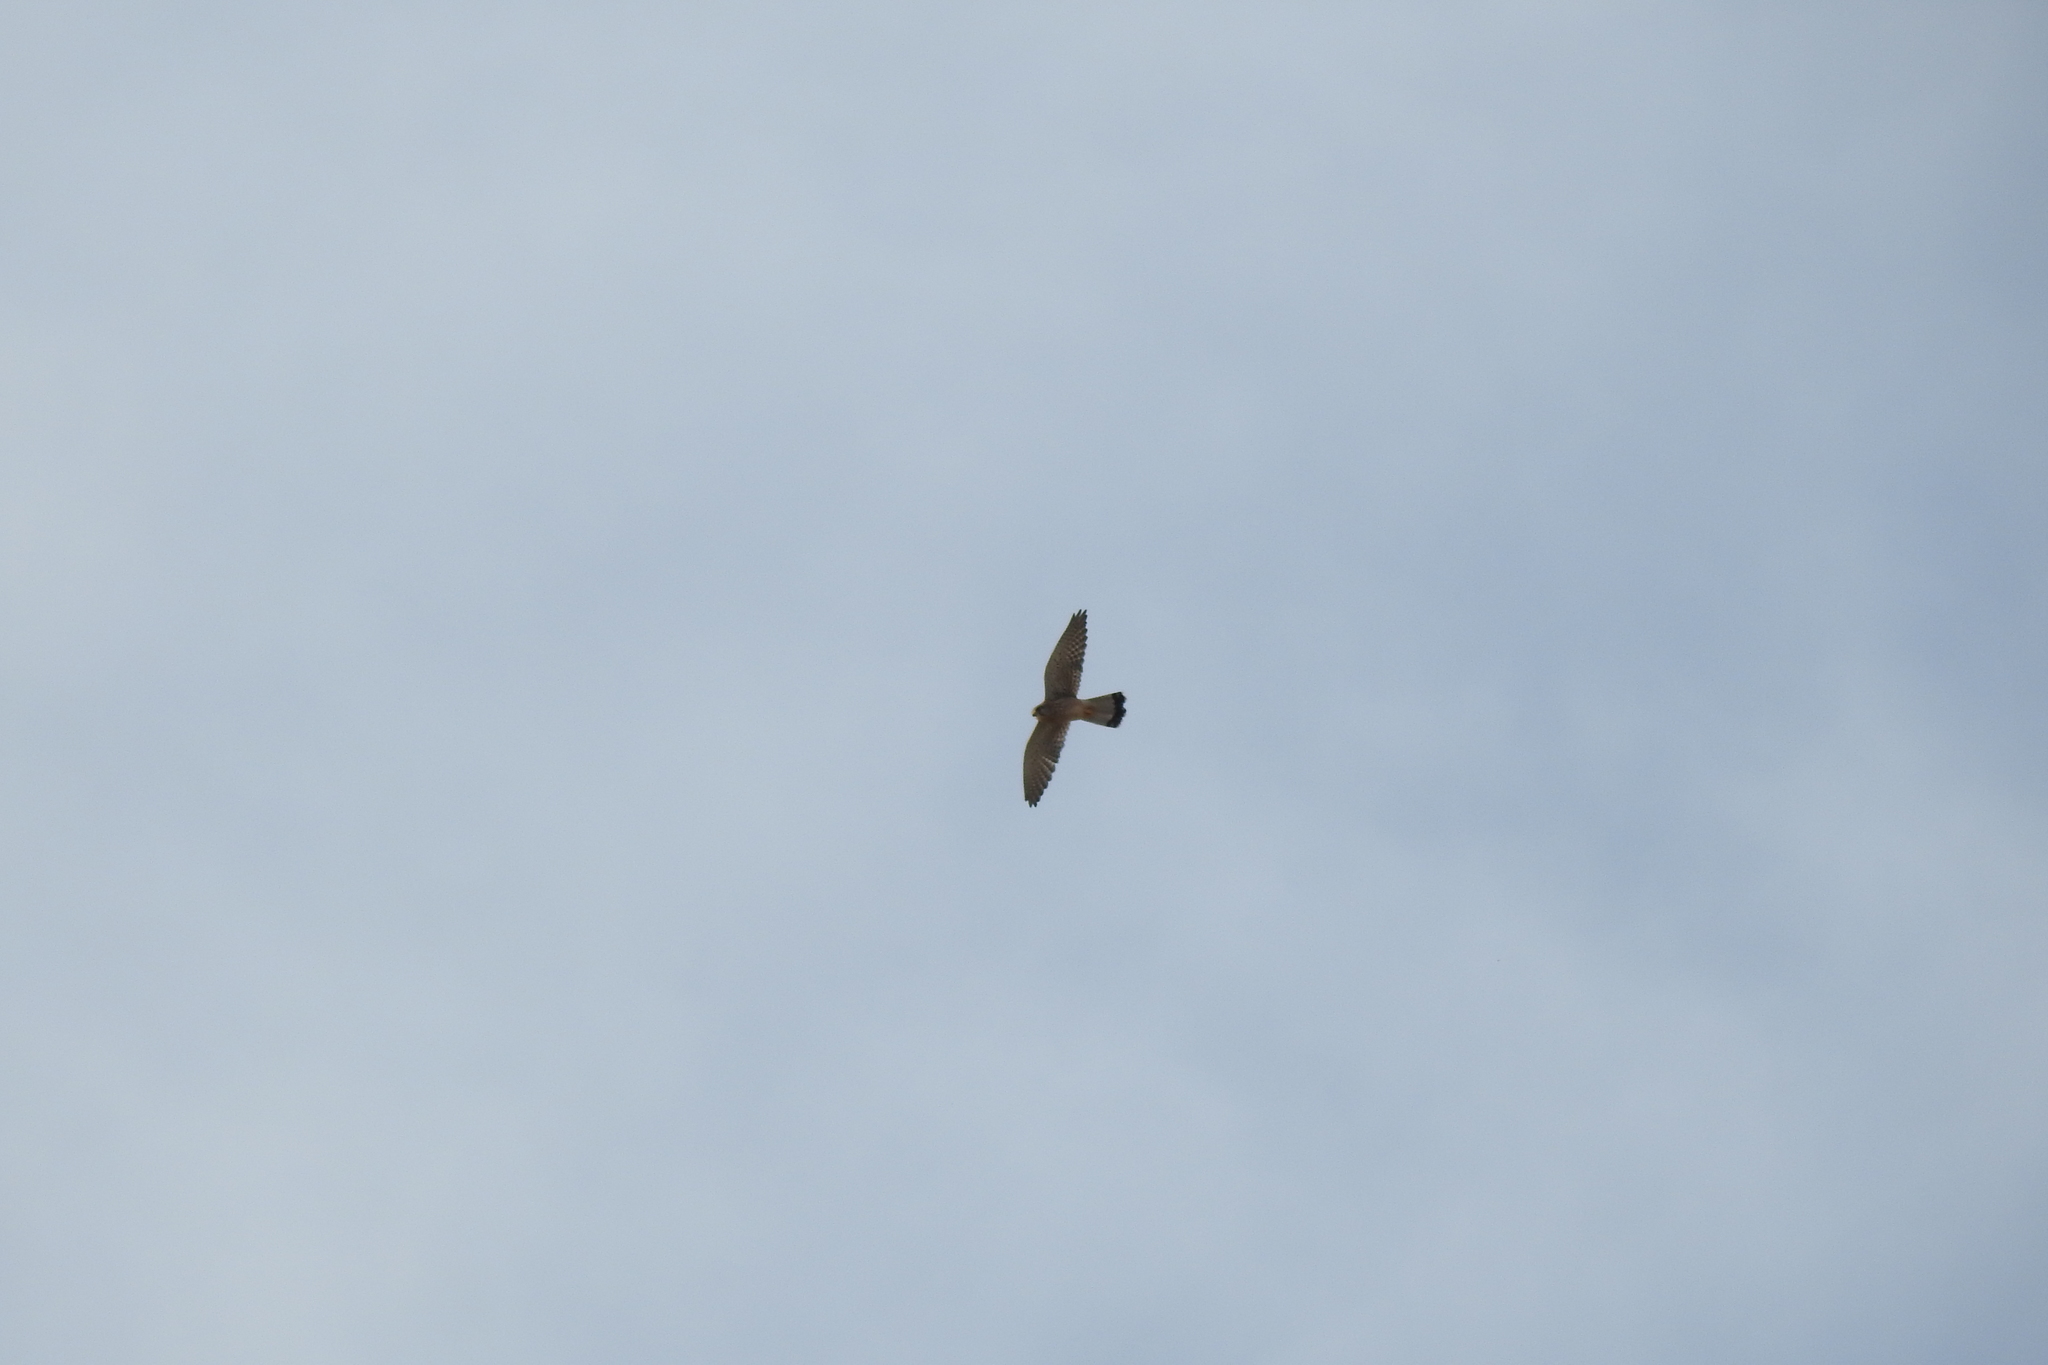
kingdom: Animalia
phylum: Chordata
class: Aves
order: Falconiformes
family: Falconidae
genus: Falco
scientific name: Falco tinnunculus
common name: Common kestrel
